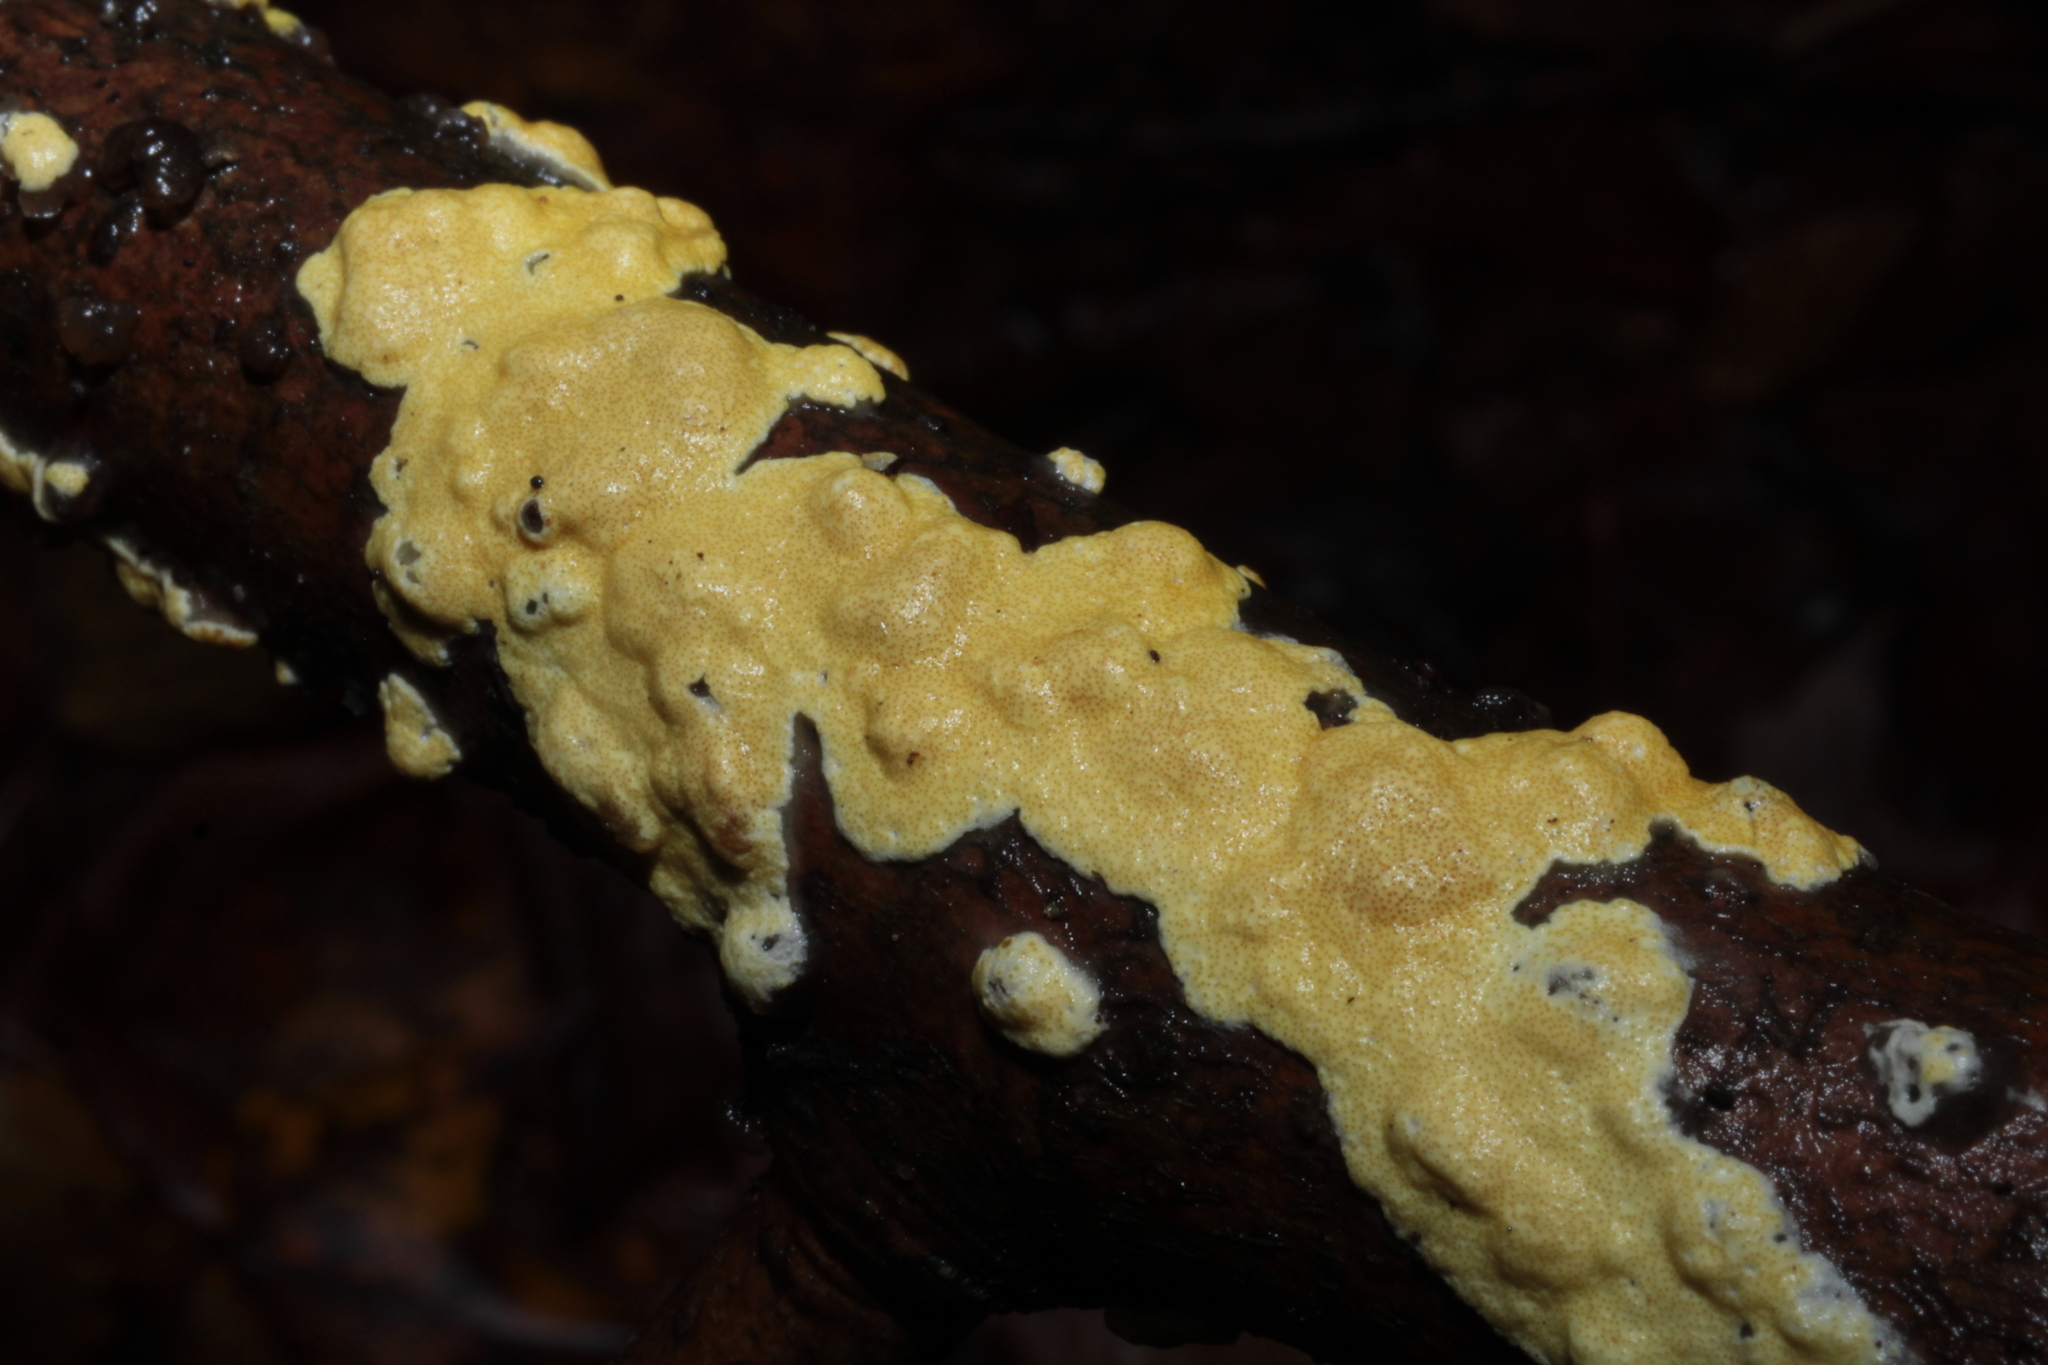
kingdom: Fungi
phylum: Ascomycota
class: Sordariomycetes
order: Hypocreales
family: Hypocreaceae
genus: Trichoderma
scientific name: Trichoderma sulphureum
